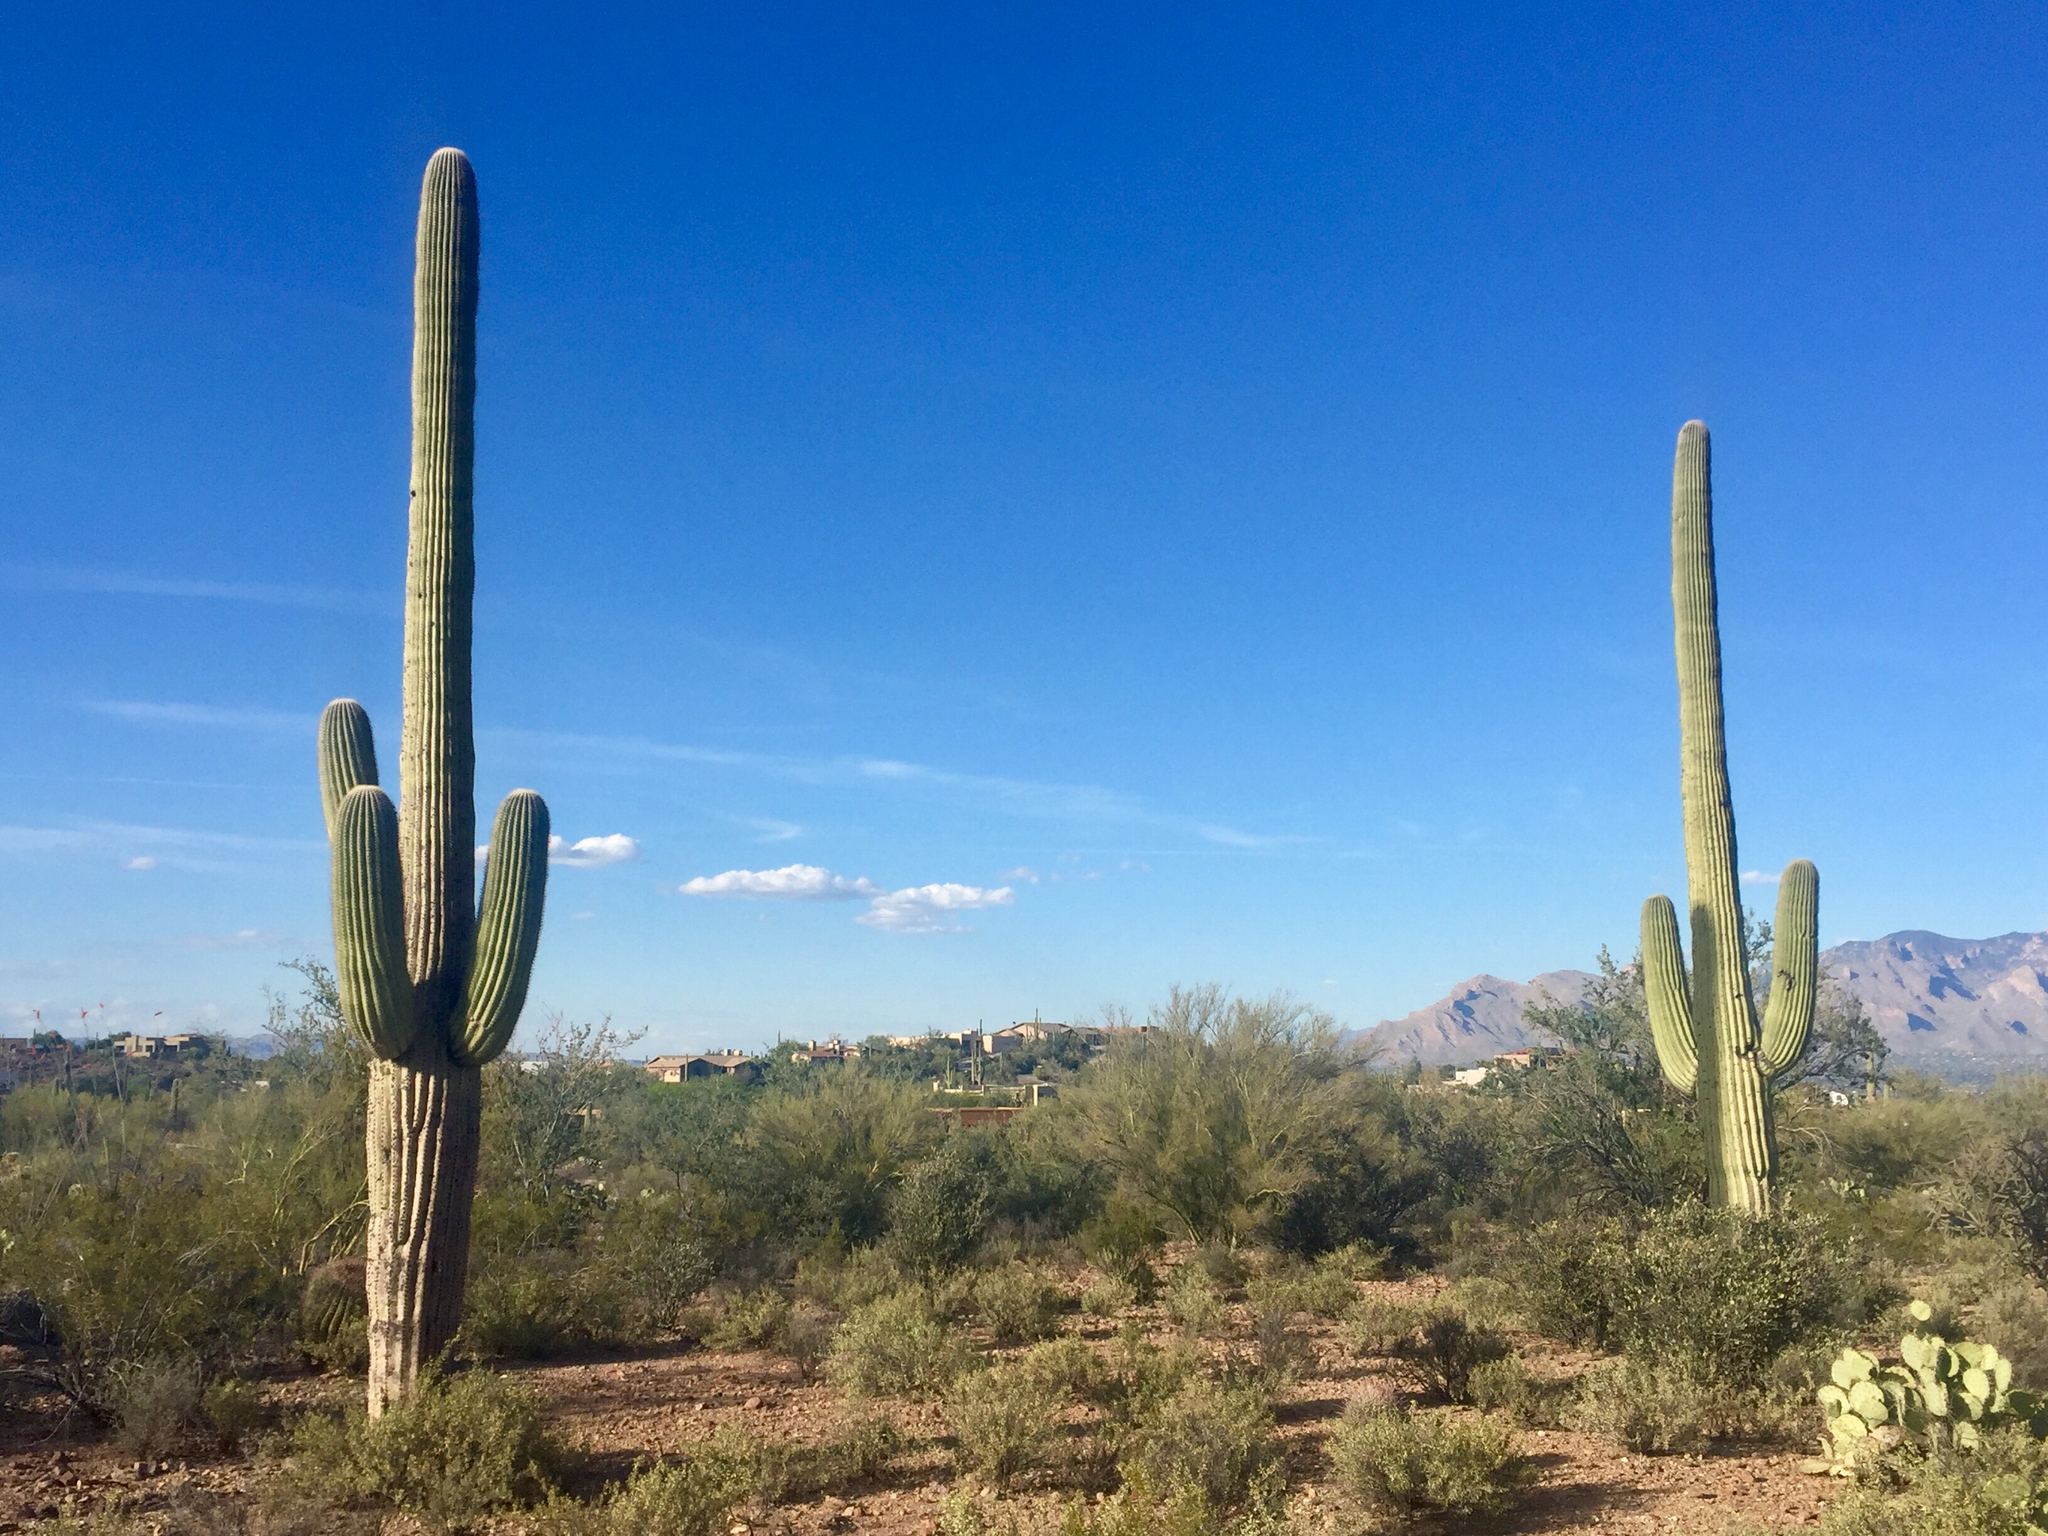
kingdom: Plantae
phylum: Tracheophyta
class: Magnoliopsida
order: Caryophyllales
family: Cactaceae
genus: Carnegiea
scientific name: Carnegiea gigantea
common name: Saguaro
